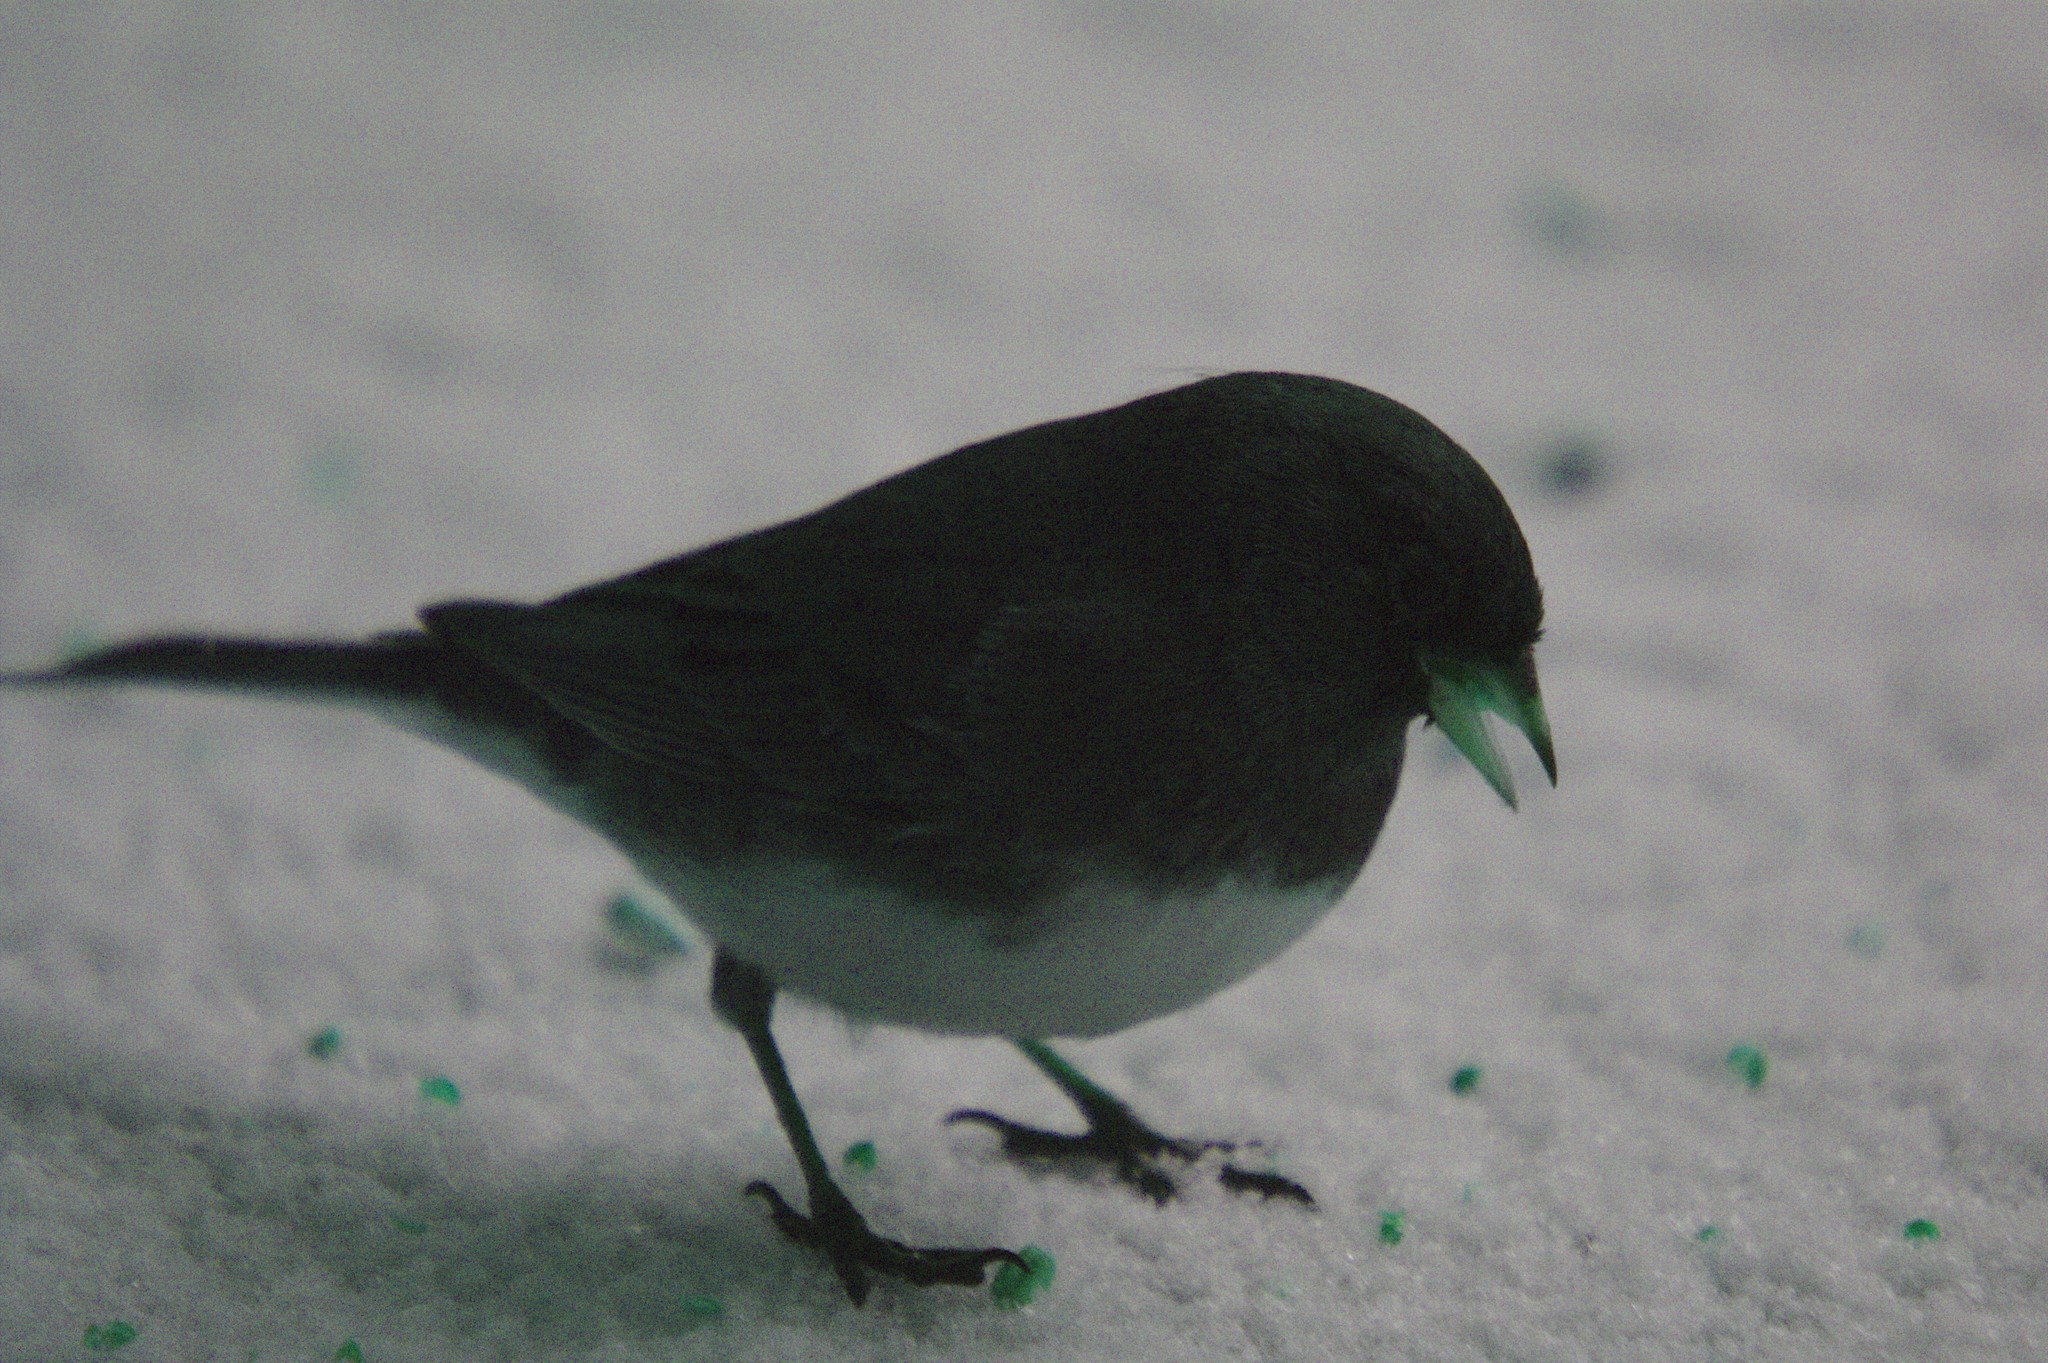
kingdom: Animalia
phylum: Chordata
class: Aves
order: Passeriformes
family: Passerellidae
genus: Junco
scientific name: Junco hyemalis
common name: Dark-eyed junco
